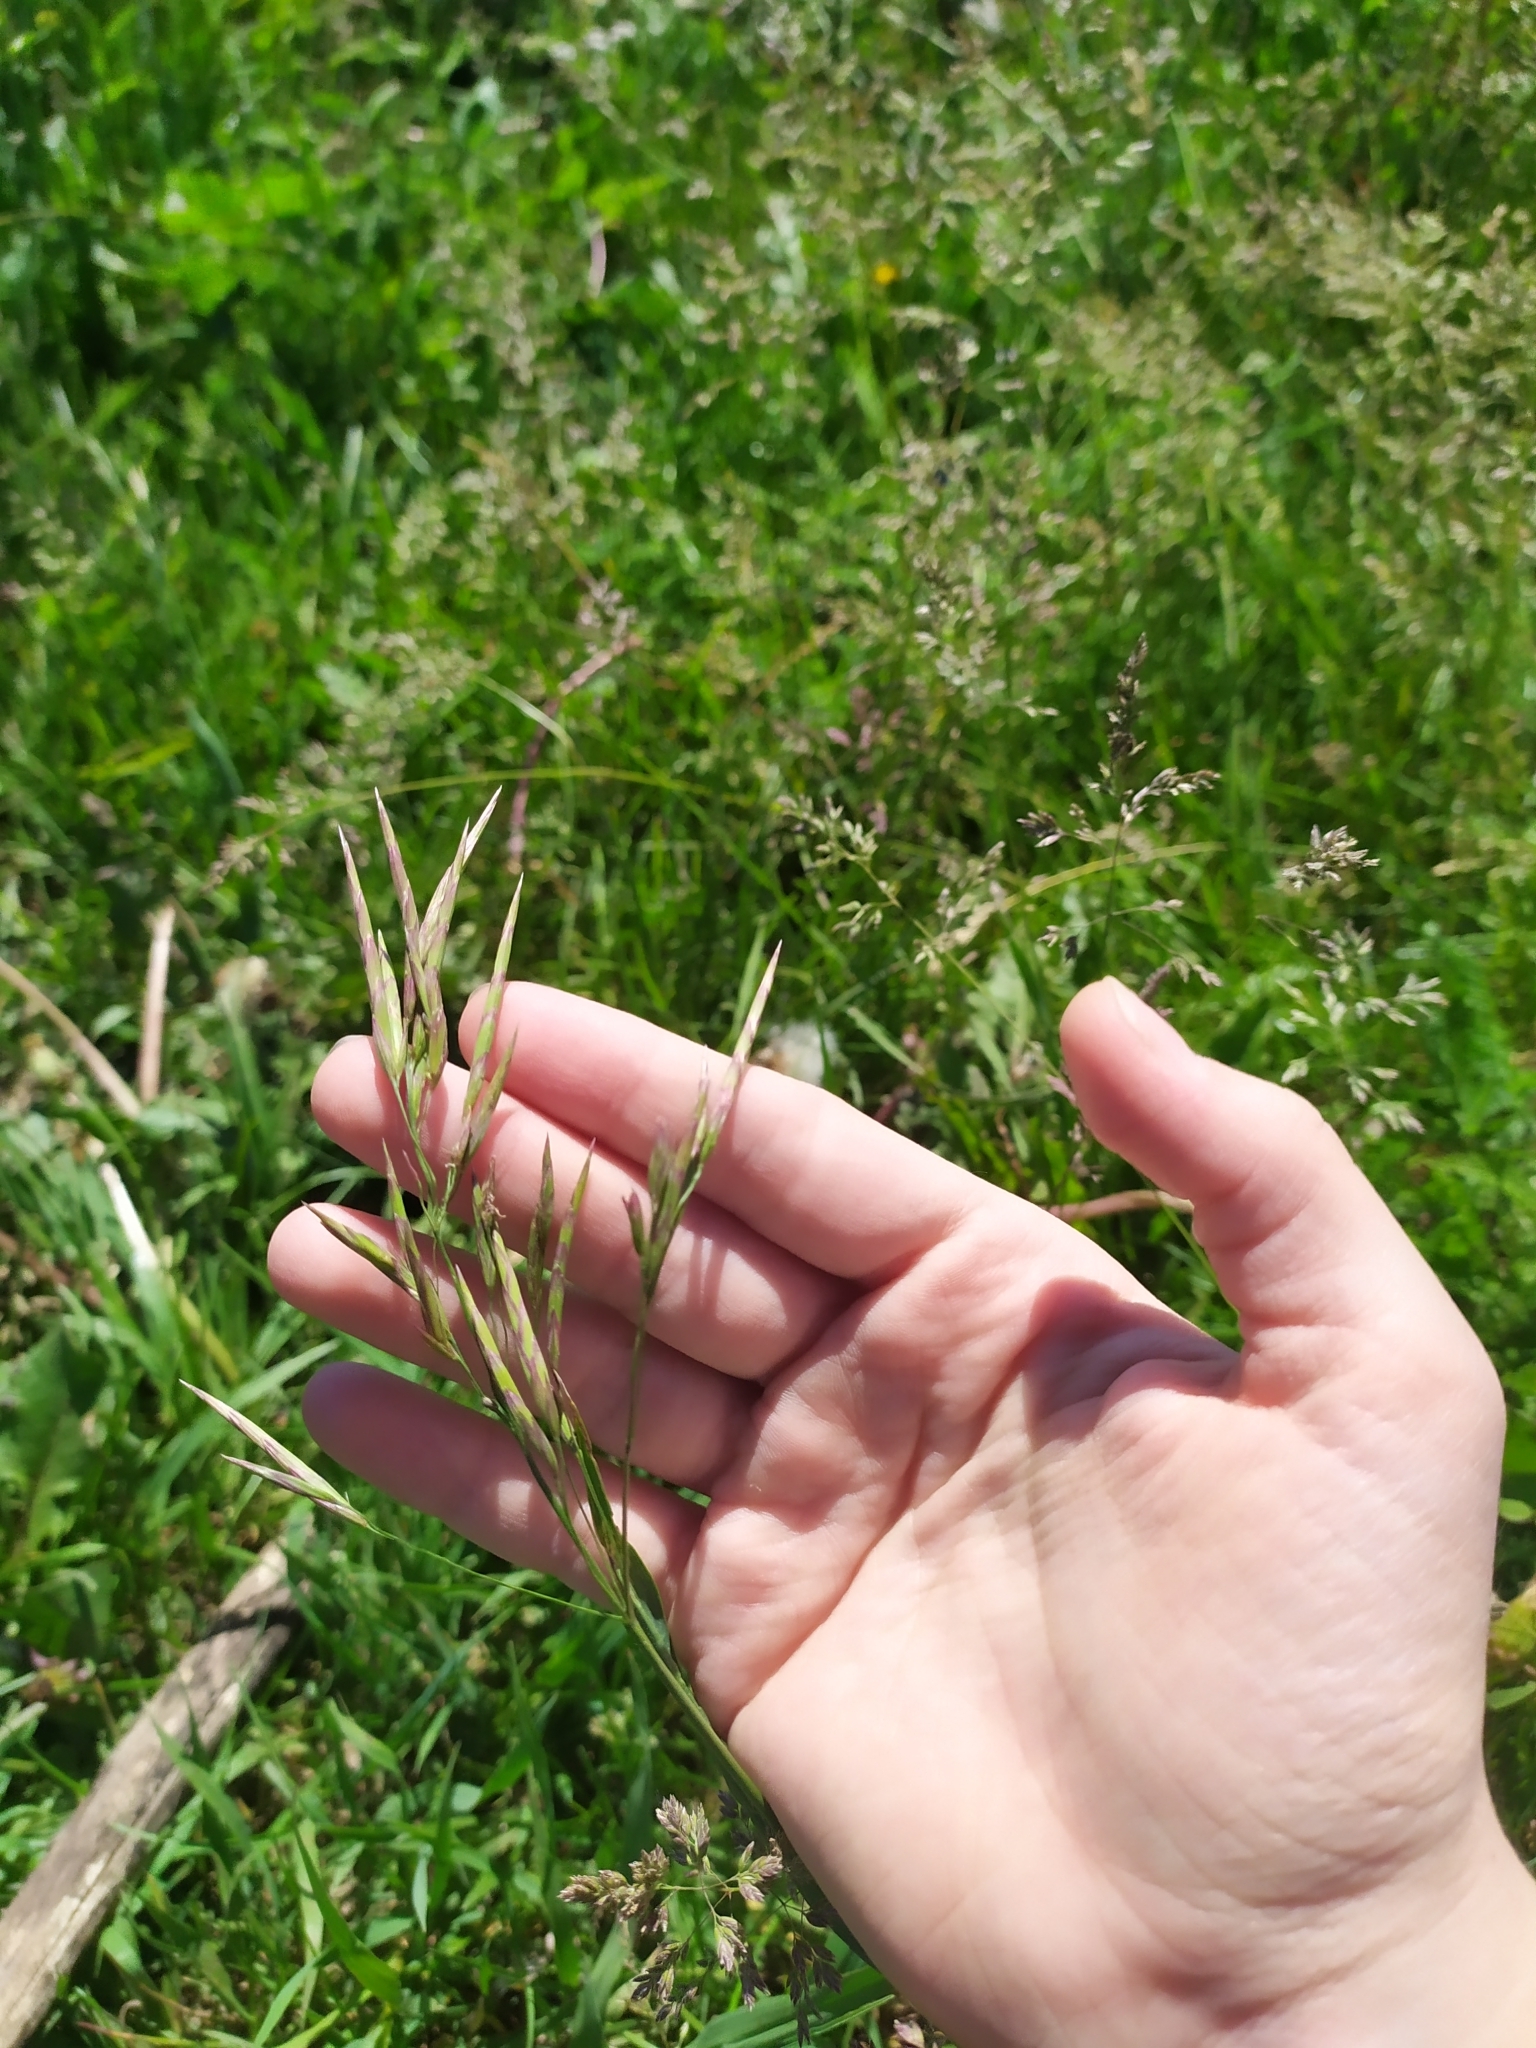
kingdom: Plantae
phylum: Tracheophyta
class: Liliopsida
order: Poales
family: Poaceae
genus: Bromus
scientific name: Bromus inermis
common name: Smooth brome
